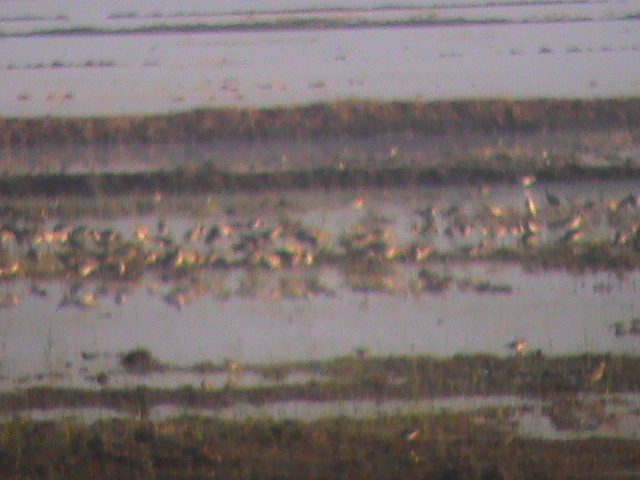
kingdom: Animalia
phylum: Chordata
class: Aves
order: Charadriiformes
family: Scolopacidae
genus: Limosa
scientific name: Limosa limosa
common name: Black-tailed godwit
